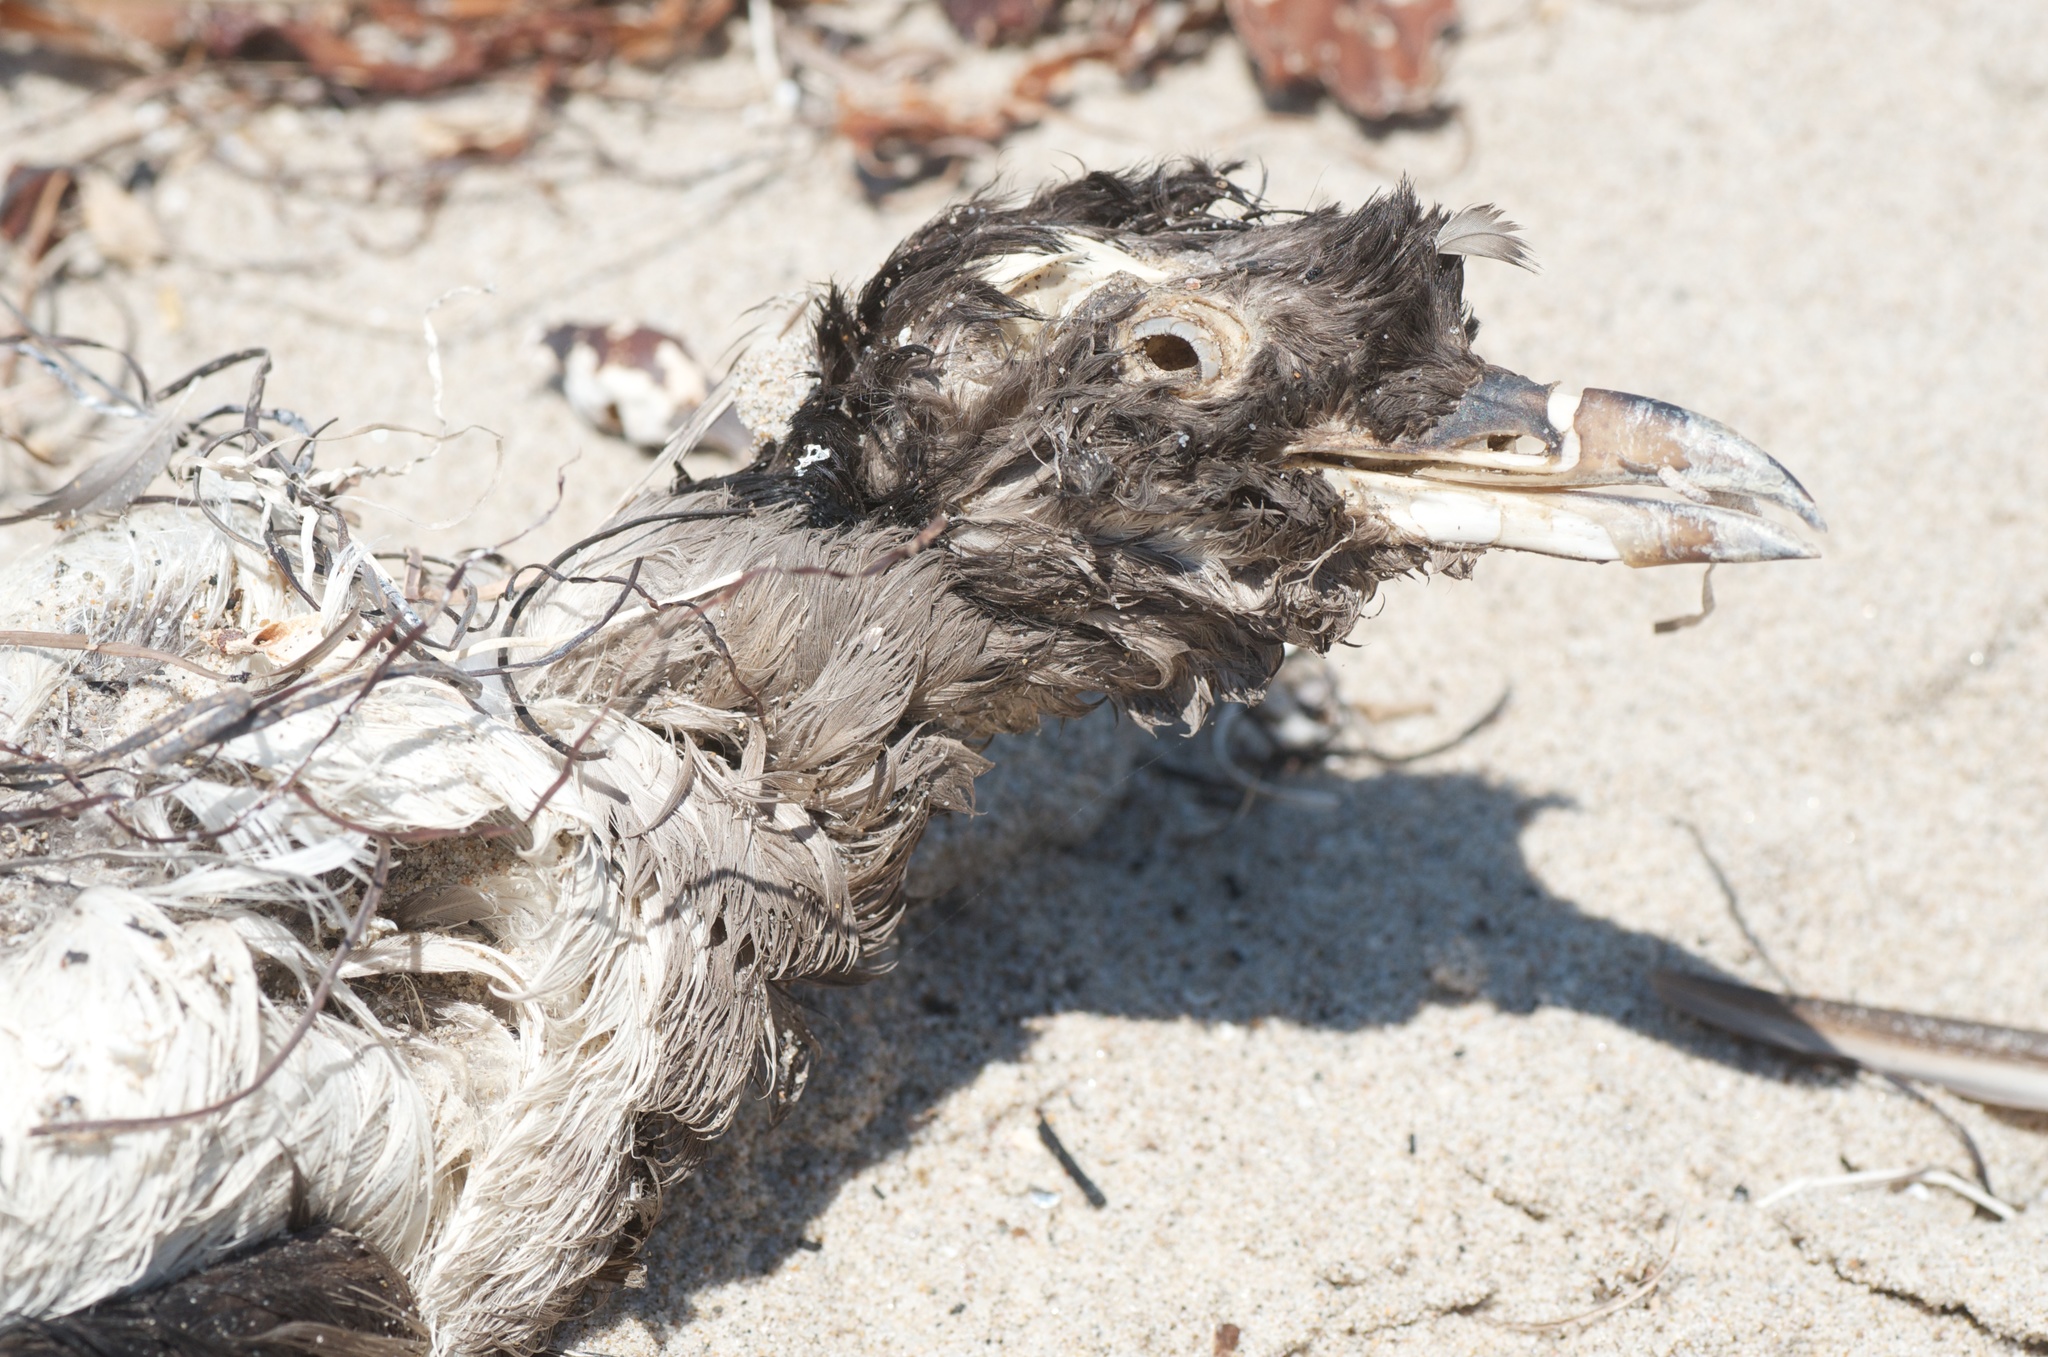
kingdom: Animalia
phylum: Chordata
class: Aves
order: Charadriiformes
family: Alcidae
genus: Cerorhinca
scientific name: Cerorhinca monocerata
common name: Rhinoceros auklet
